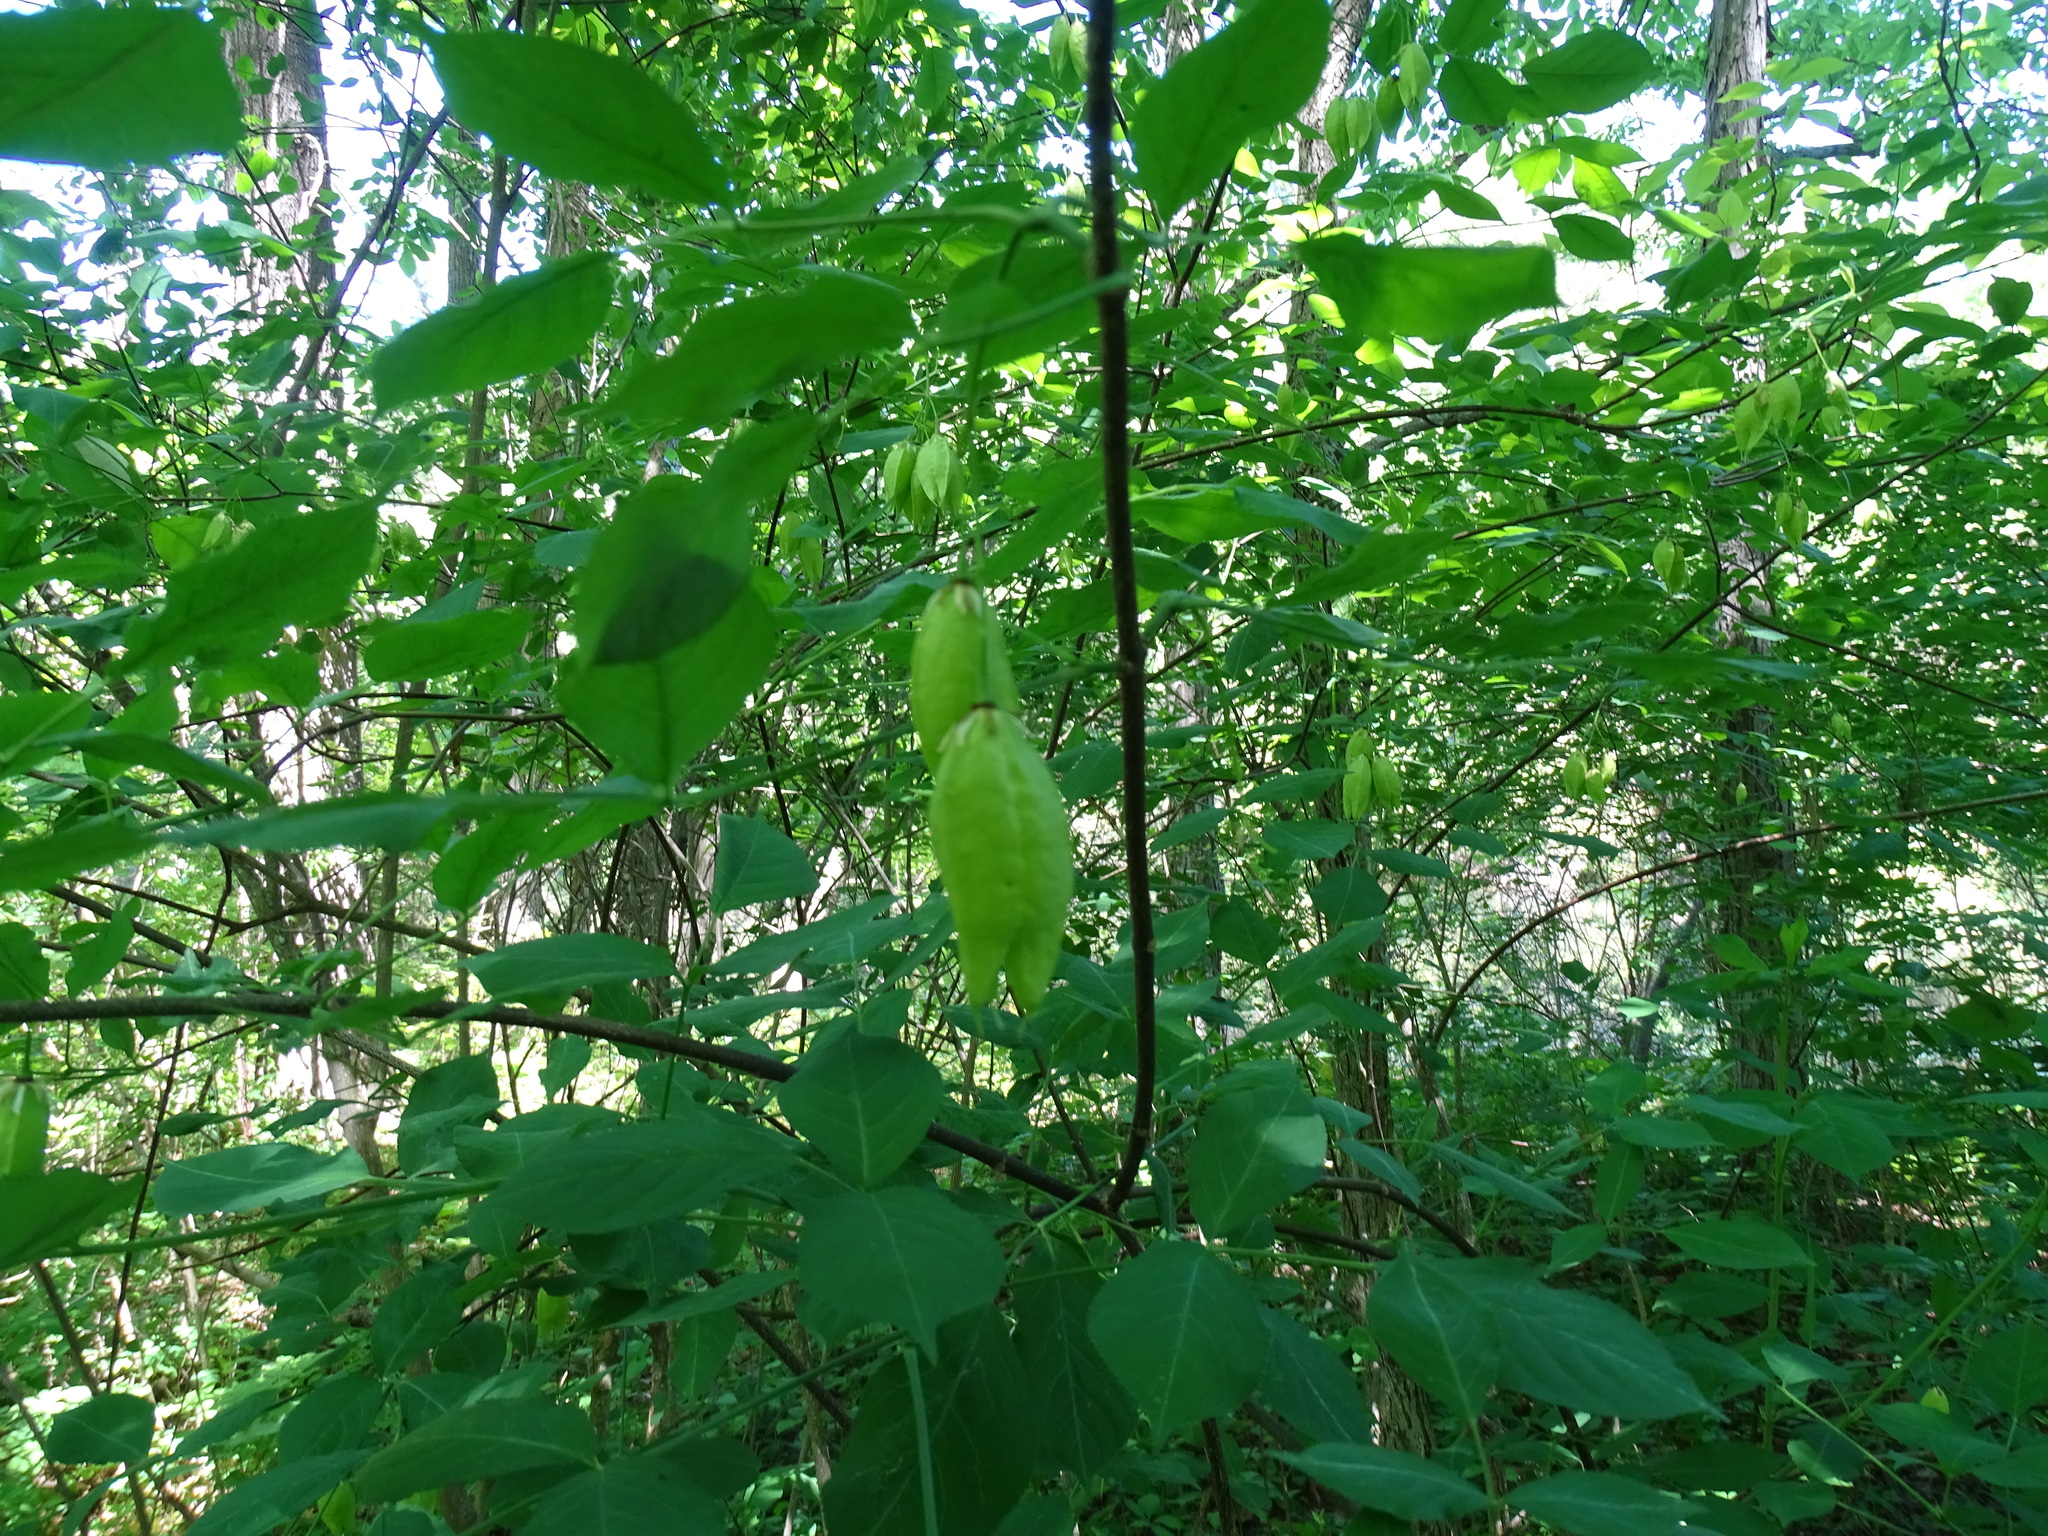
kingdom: Plantae
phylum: Tracheophyta
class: Magnoliopsida
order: Crossosomatales
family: Staphyleaceae
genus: Staphylea
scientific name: Staphylea trifolia
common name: American bladdernut
